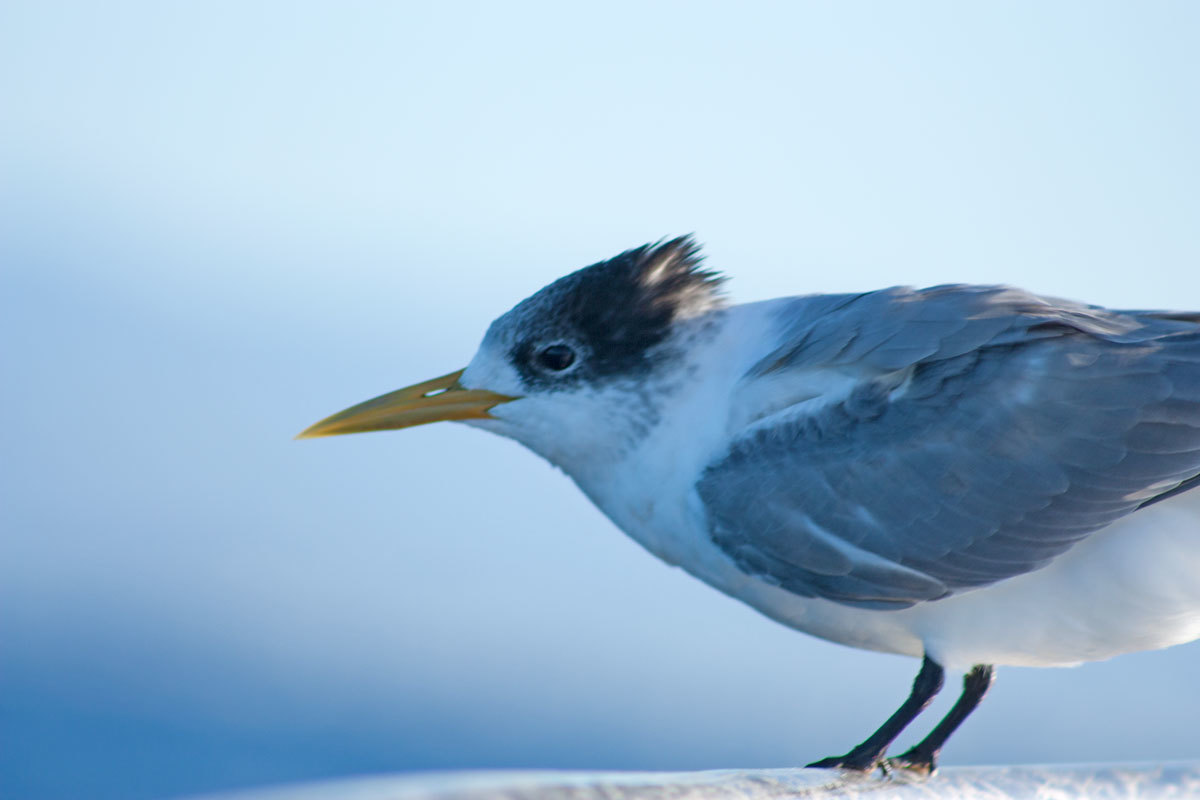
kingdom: Animalia
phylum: Chordata
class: Aves
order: Charadriiformes
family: Laridae
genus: Thalasseus
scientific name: Thalasseus bergii
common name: Greater crested tern
